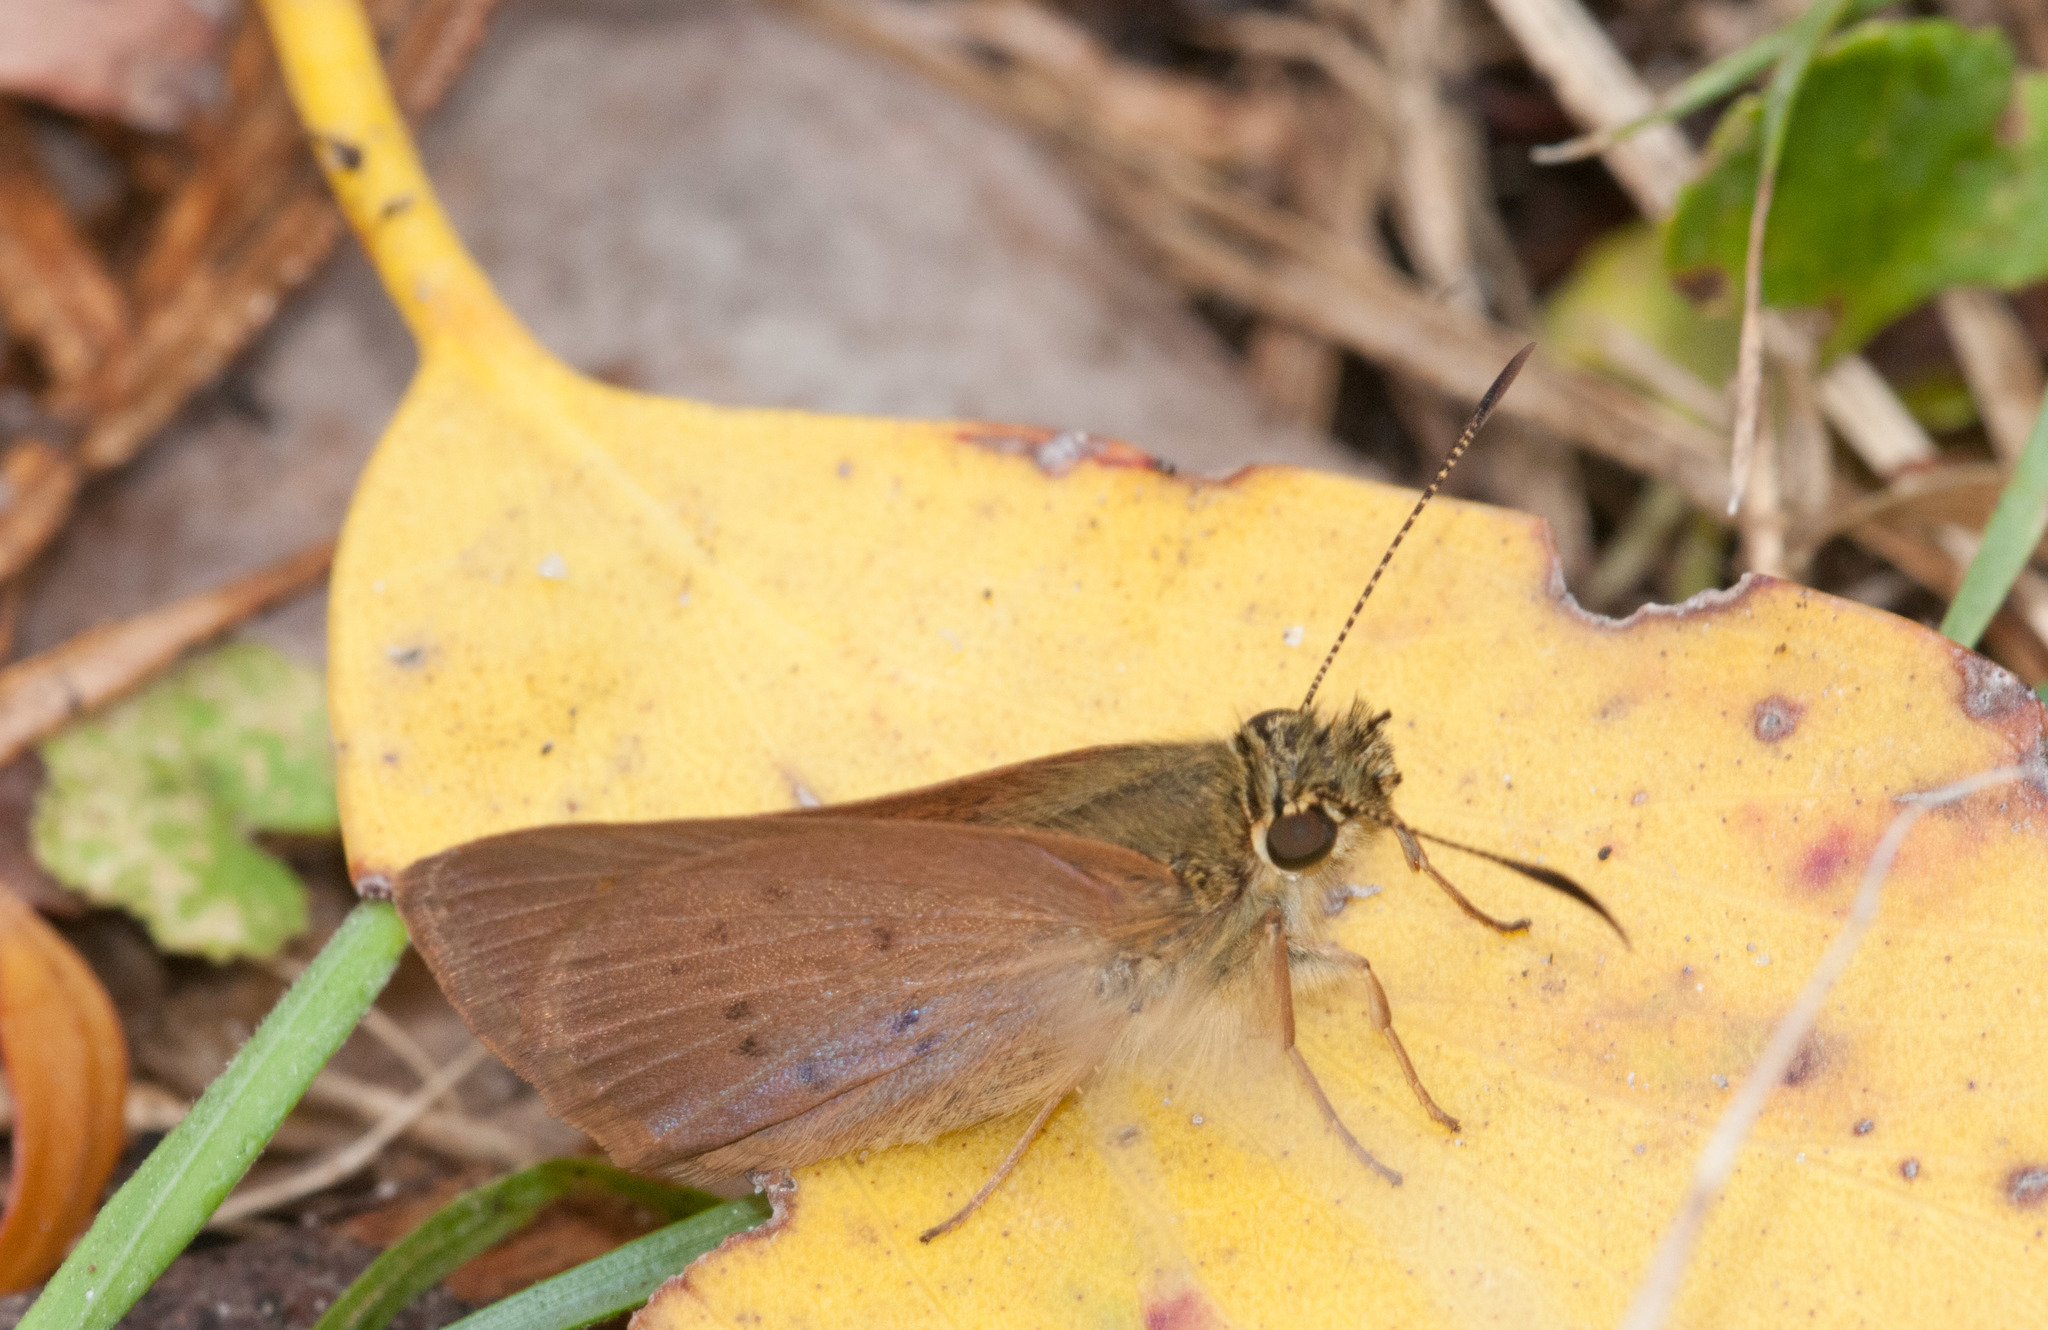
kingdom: Animalia
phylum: Arthropoda
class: Insecta
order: Lepidoptera
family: Hesperiidae
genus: Toxidia
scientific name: Toxidia
